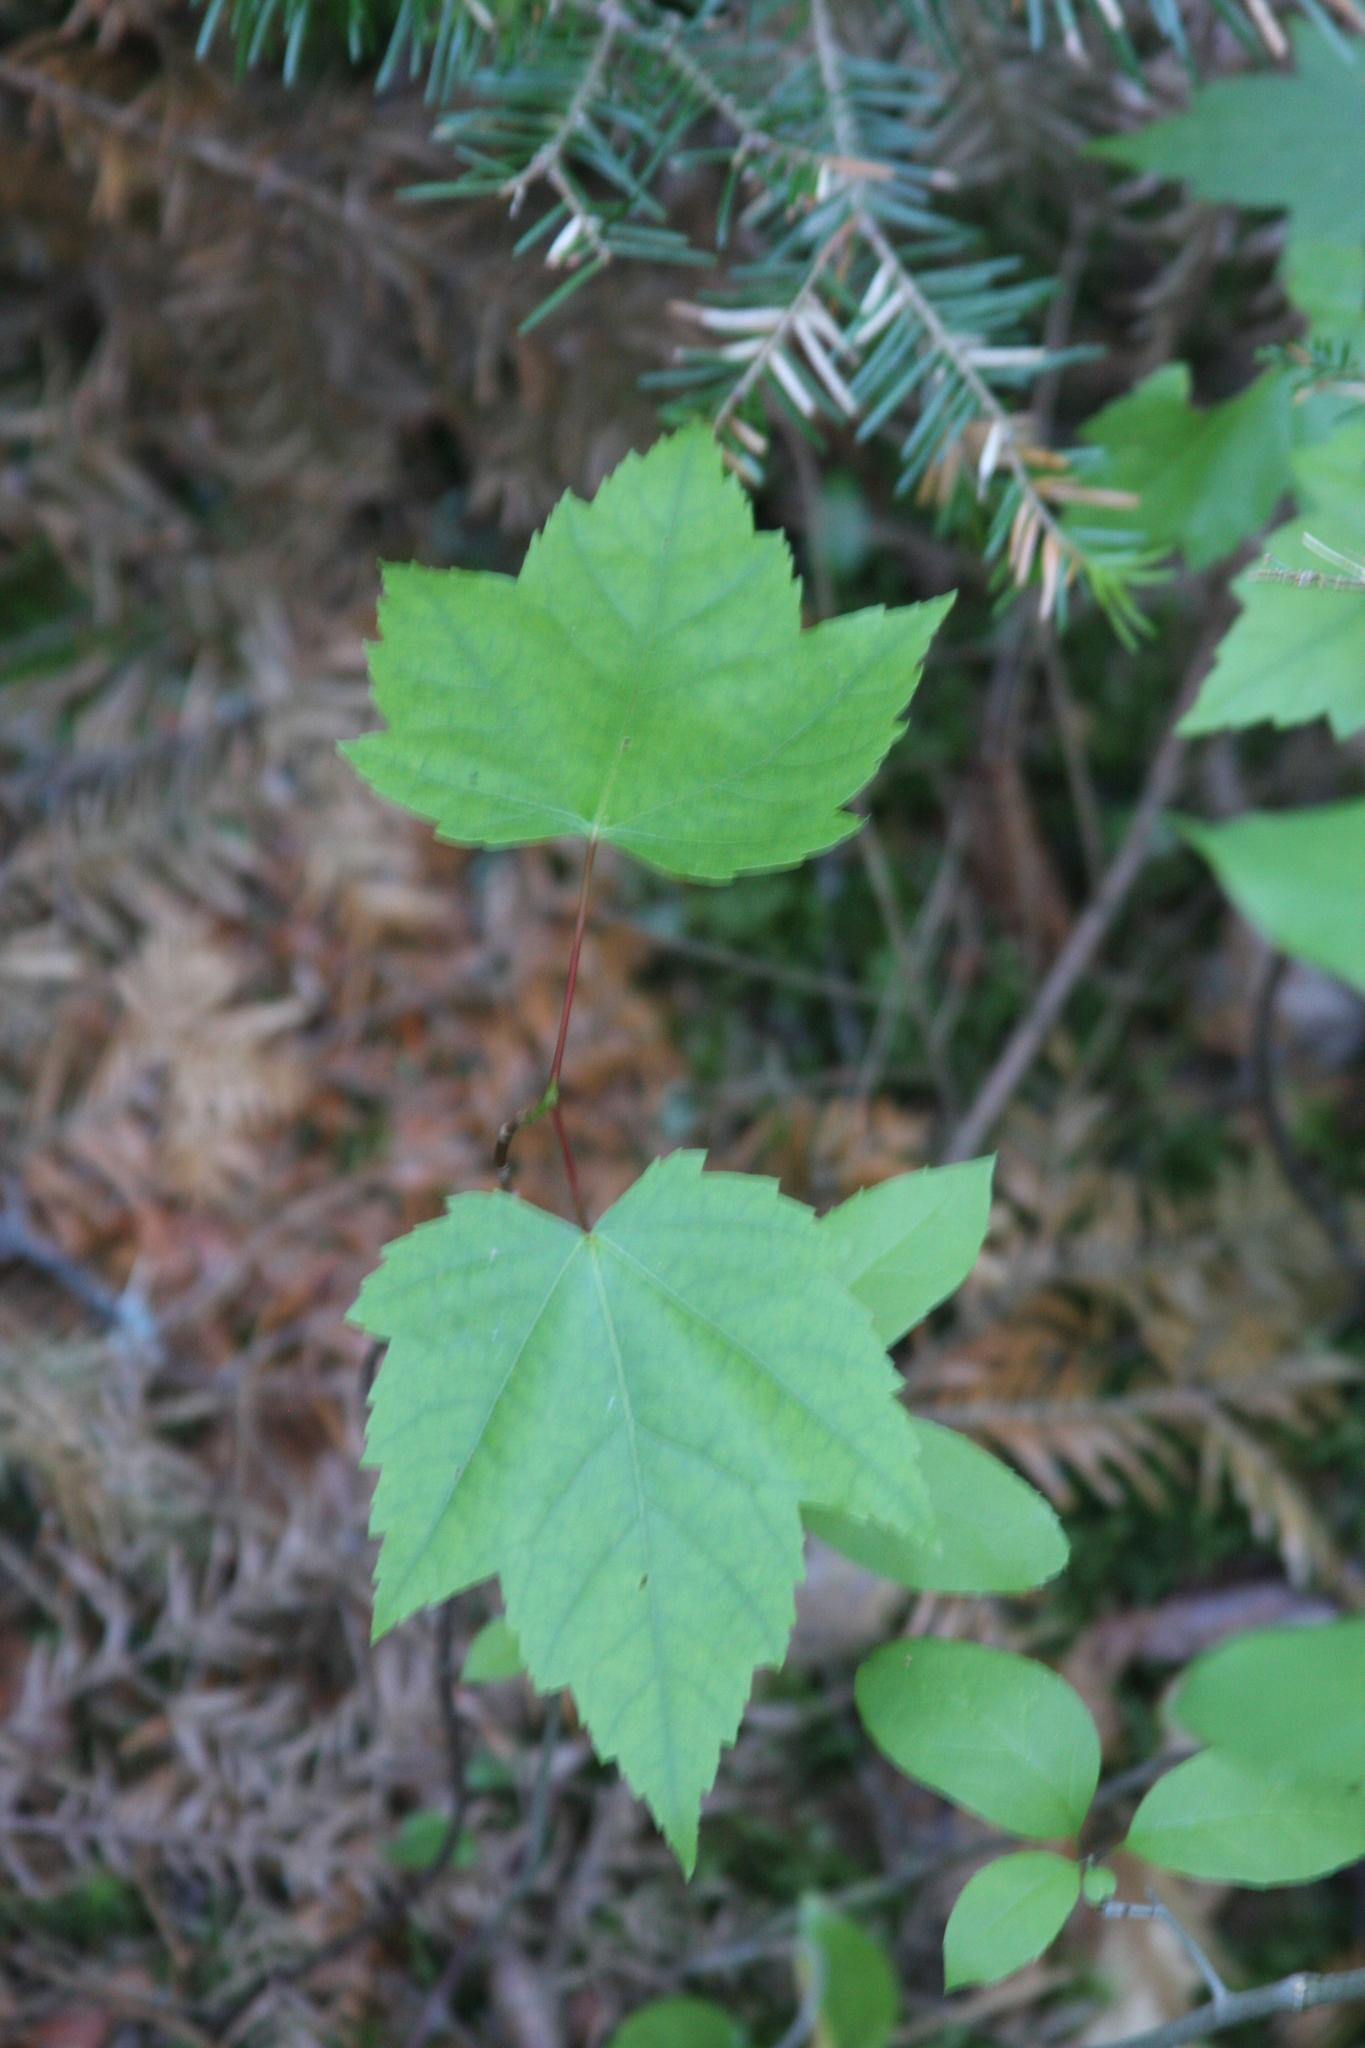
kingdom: Plantae
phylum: Tracheophyta
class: Magnoliopsida
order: Sapindales
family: Sapindaceae
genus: Acer
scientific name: Acer rubrum
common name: Red maple
